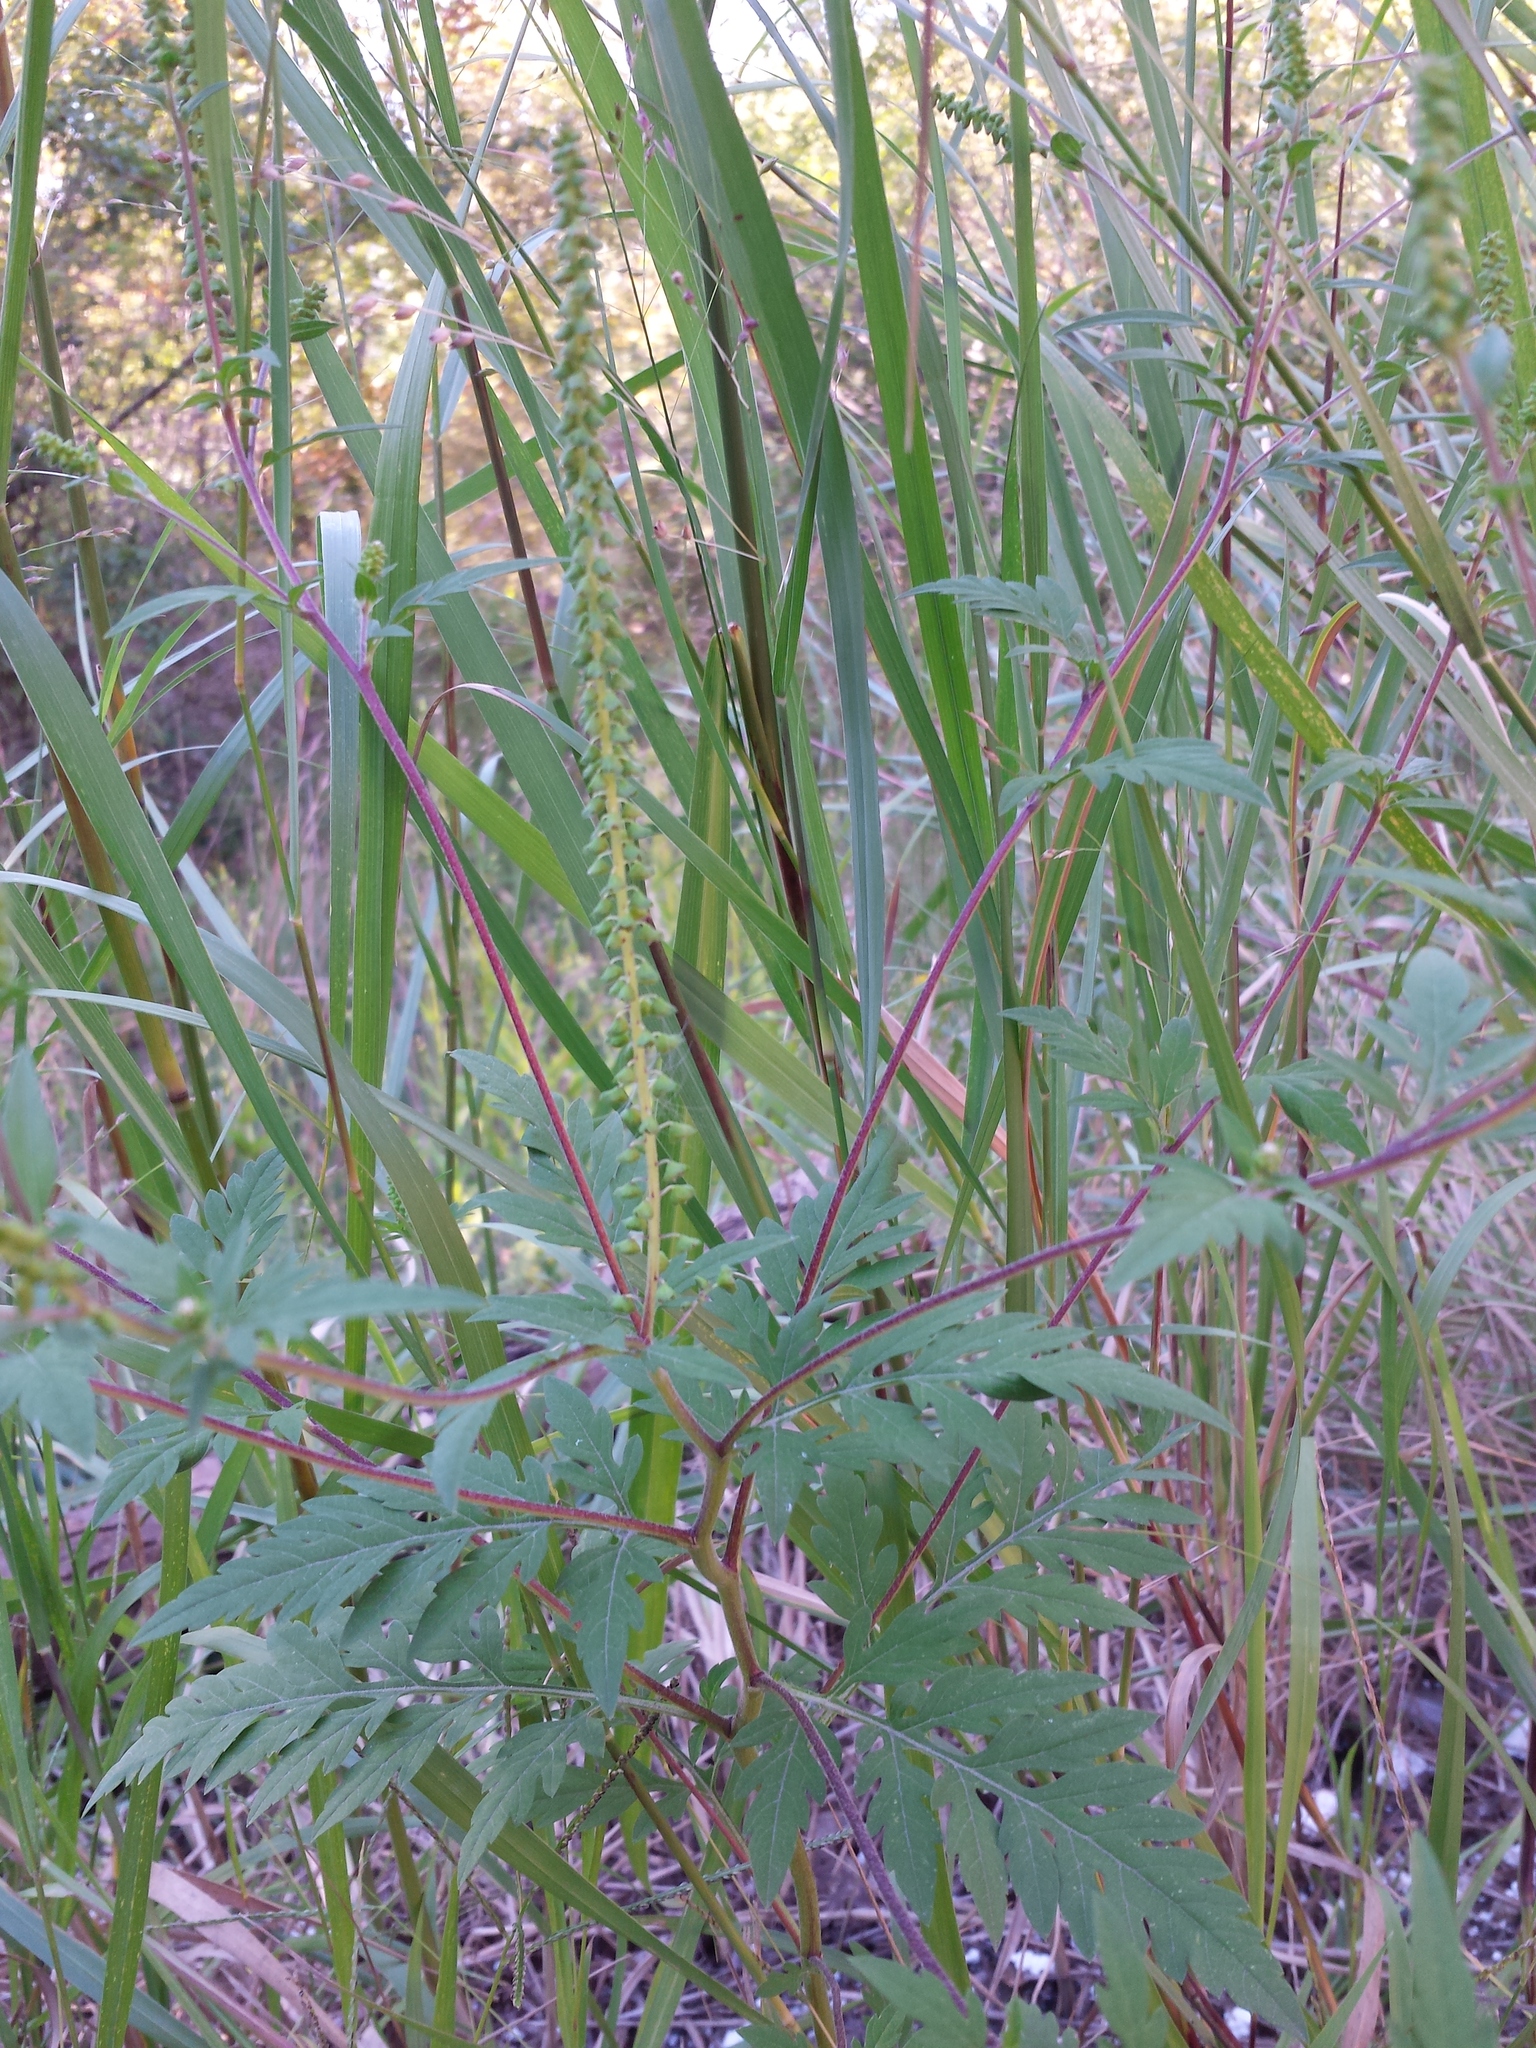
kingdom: Plantae
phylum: Tracheophyta
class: Magnoliopsida
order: Asterales
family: Asteraceae
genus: Ambrosia
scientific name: Ambrosia artemisiifolia
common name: Annual ragweed
